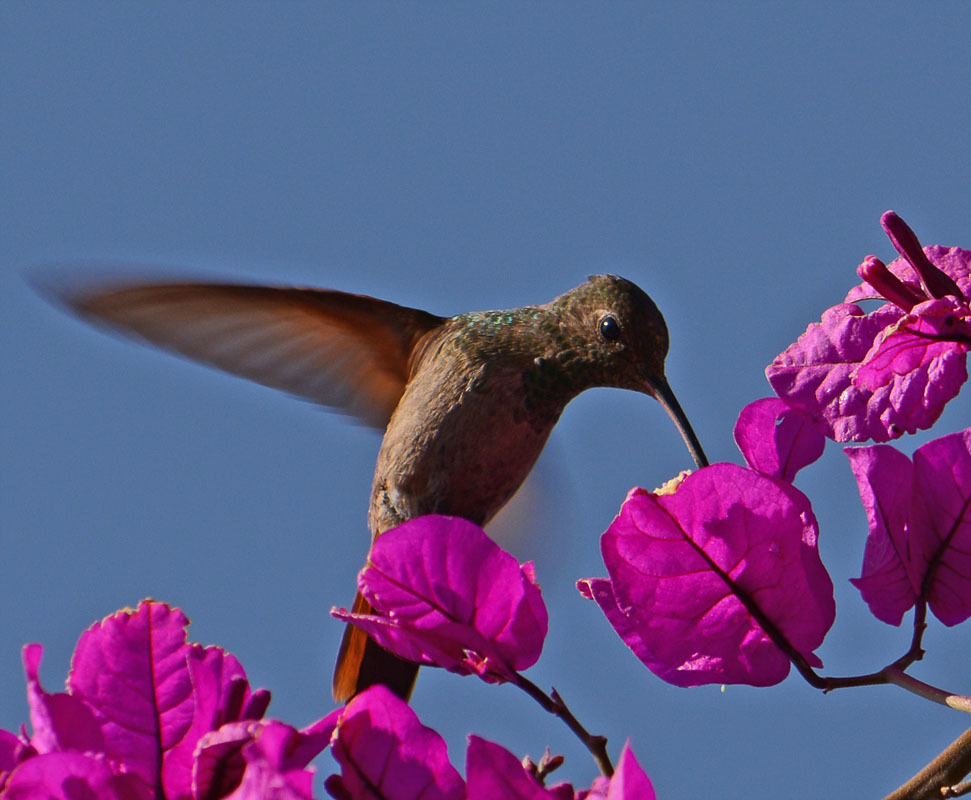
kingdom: Animalia
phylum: Chordata
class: Aves
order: Apodiformes
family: Trochilidae
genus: Saucerottia
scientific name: Saucerottia beryllina
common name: Berylline hummingbird
